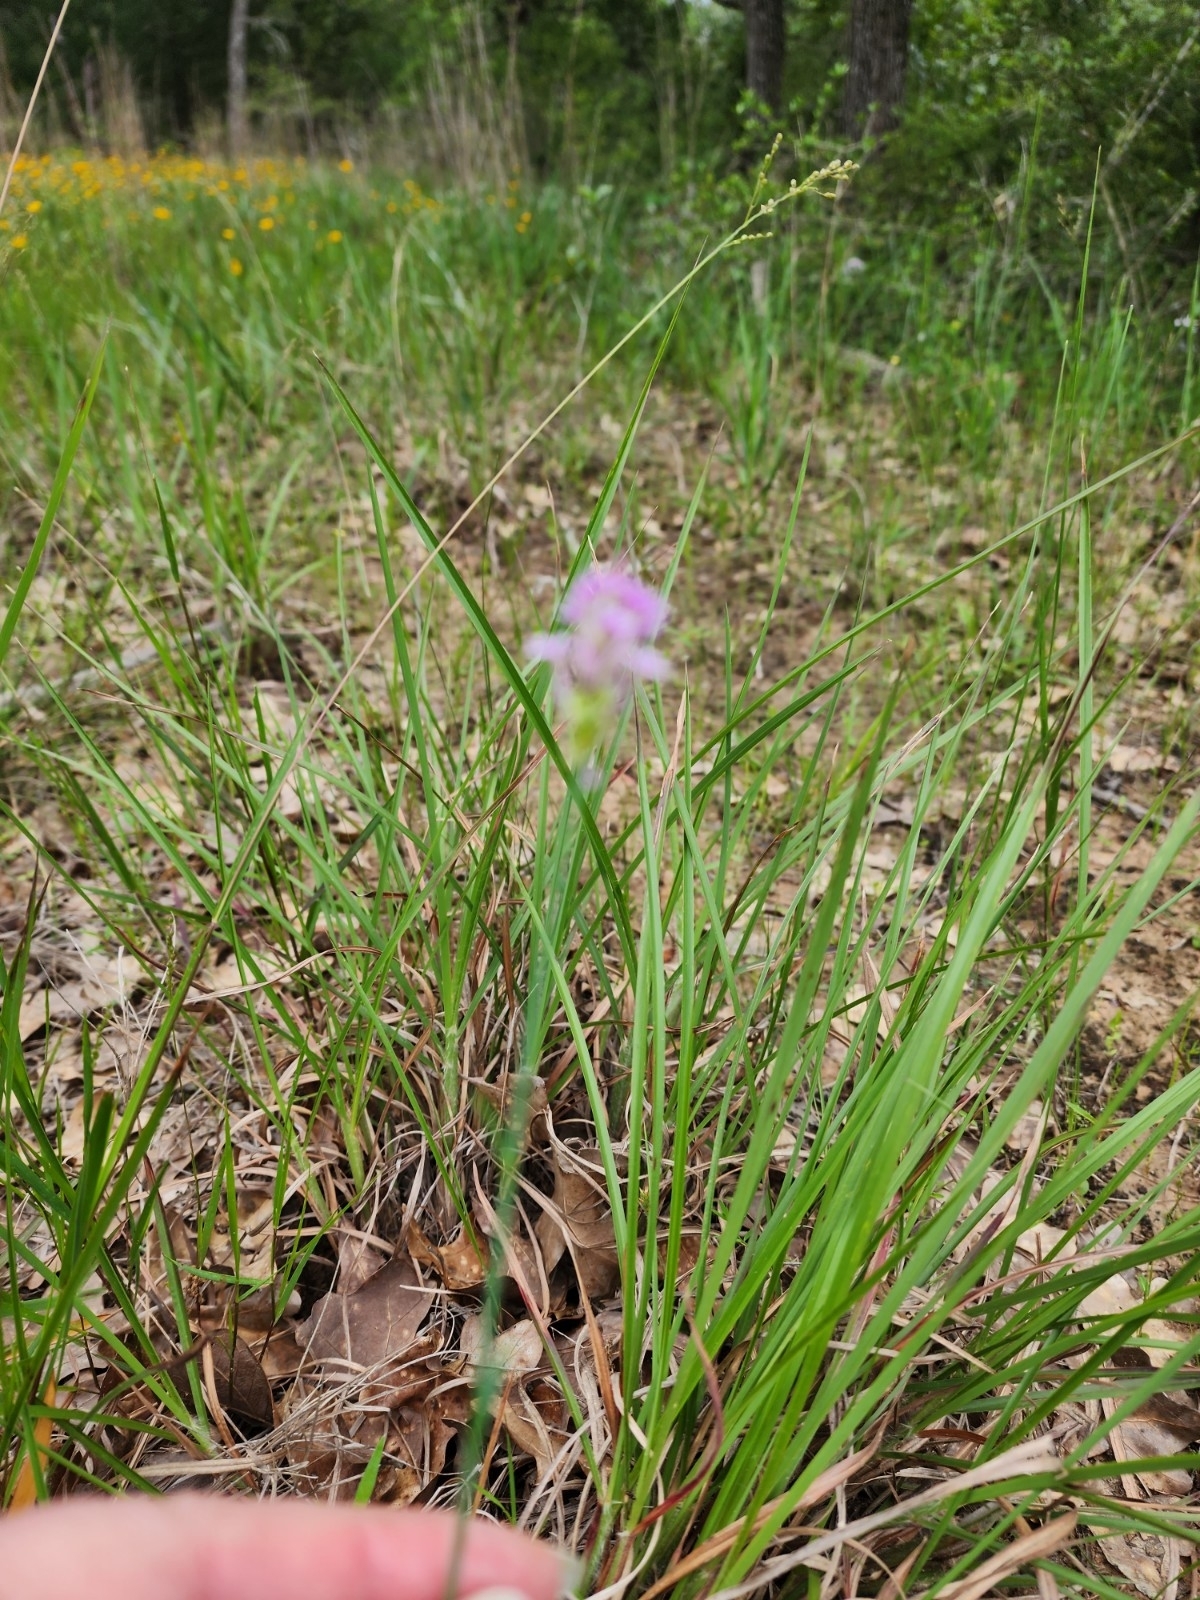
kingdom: Plantae
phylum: Tracheophyta
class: Magnoliopsida
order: Fabales
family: Polygalaceae
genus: Polygala
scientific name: Polygala incarnata
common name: Pink milkwort
